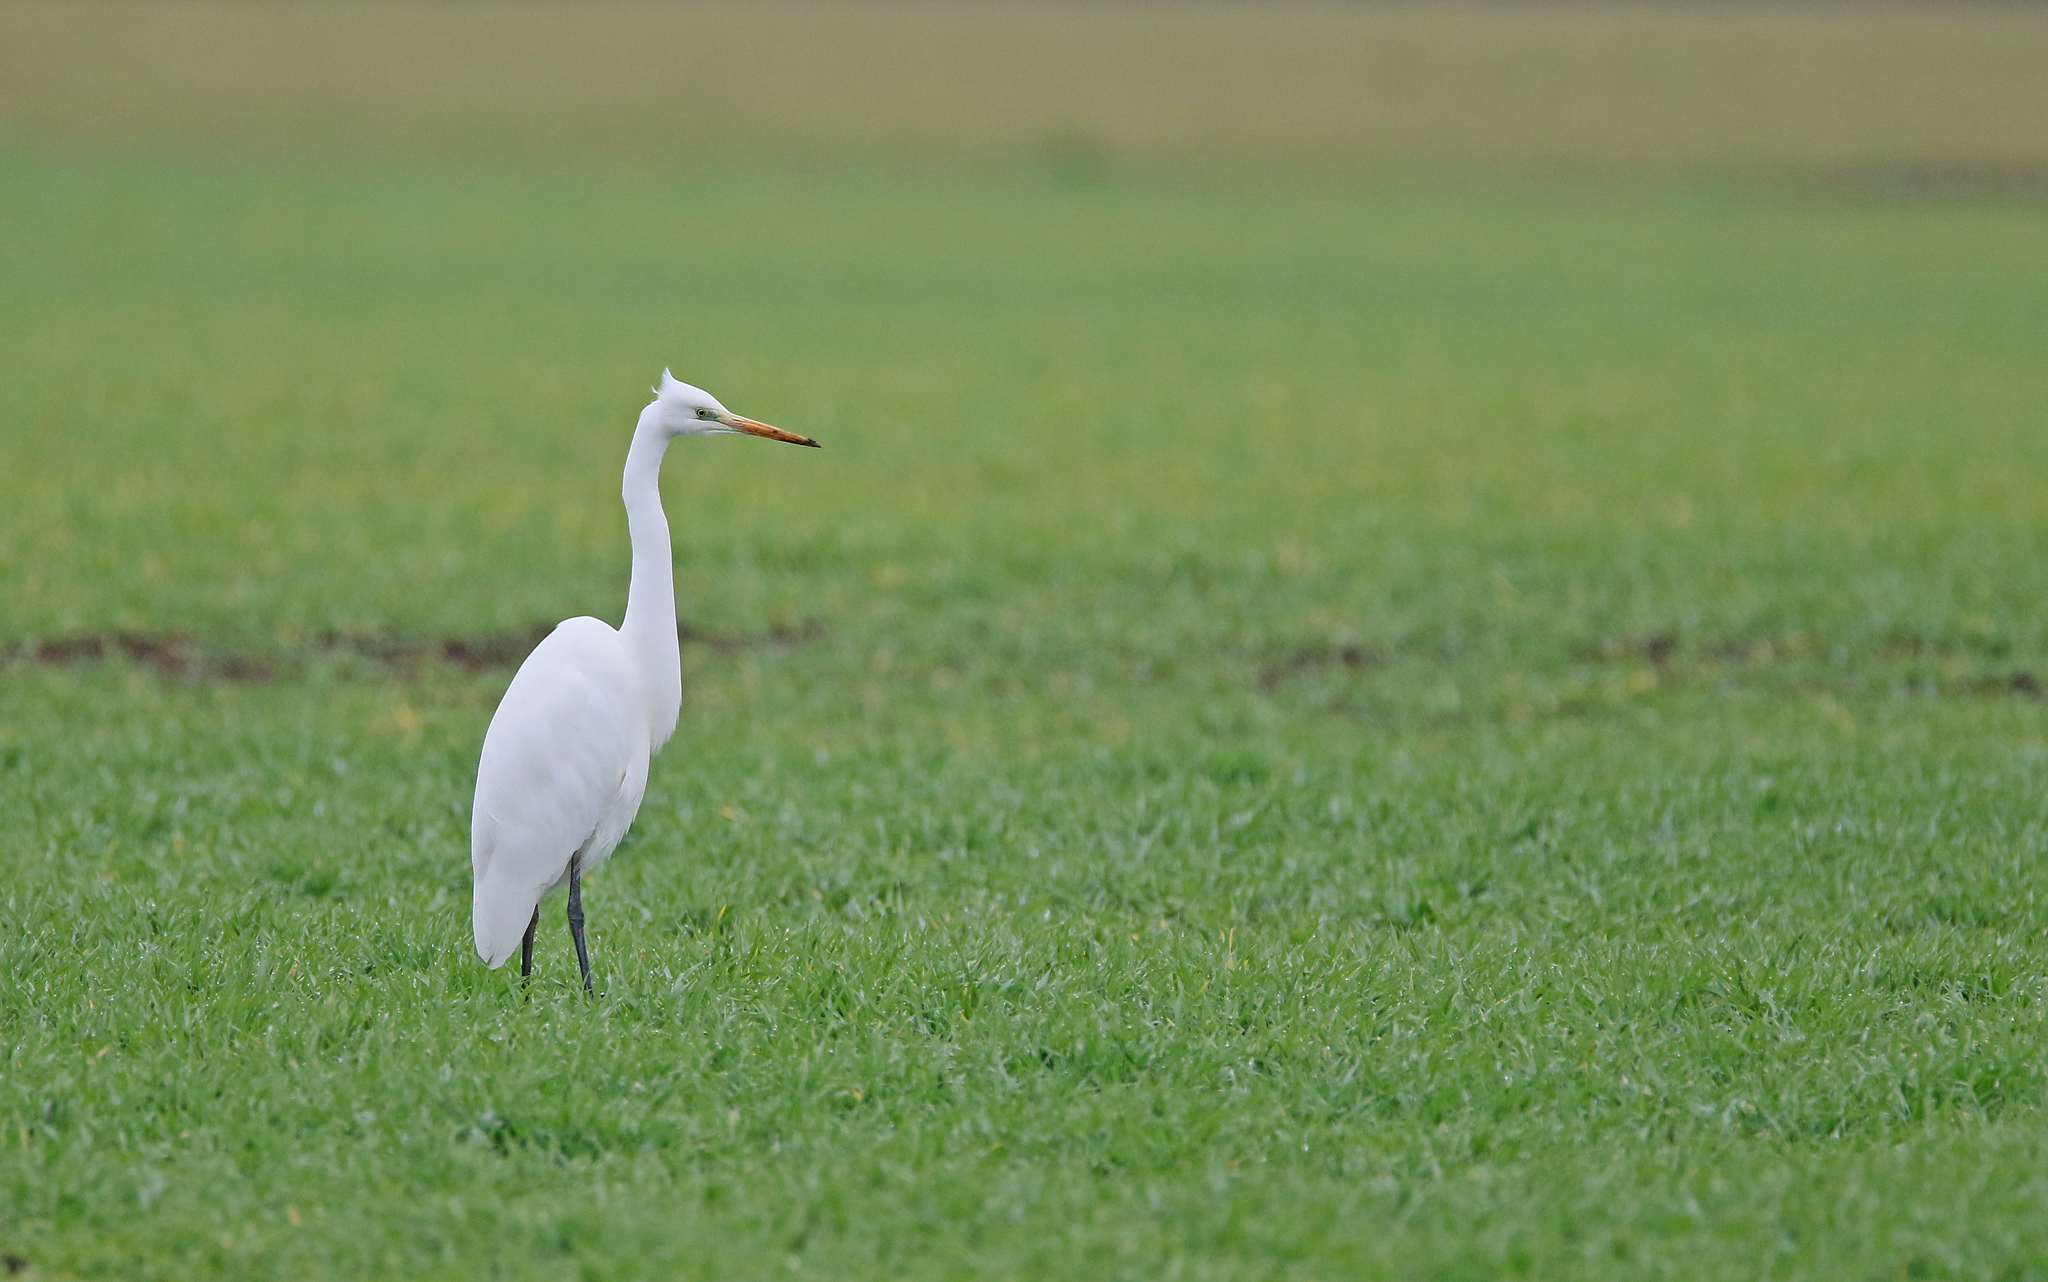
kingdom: Animalia
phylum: Chordata
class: Aves
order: Pelecaniformes
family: Ardeidae
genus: Ardea
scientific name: Ardea alba
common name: Great egret
